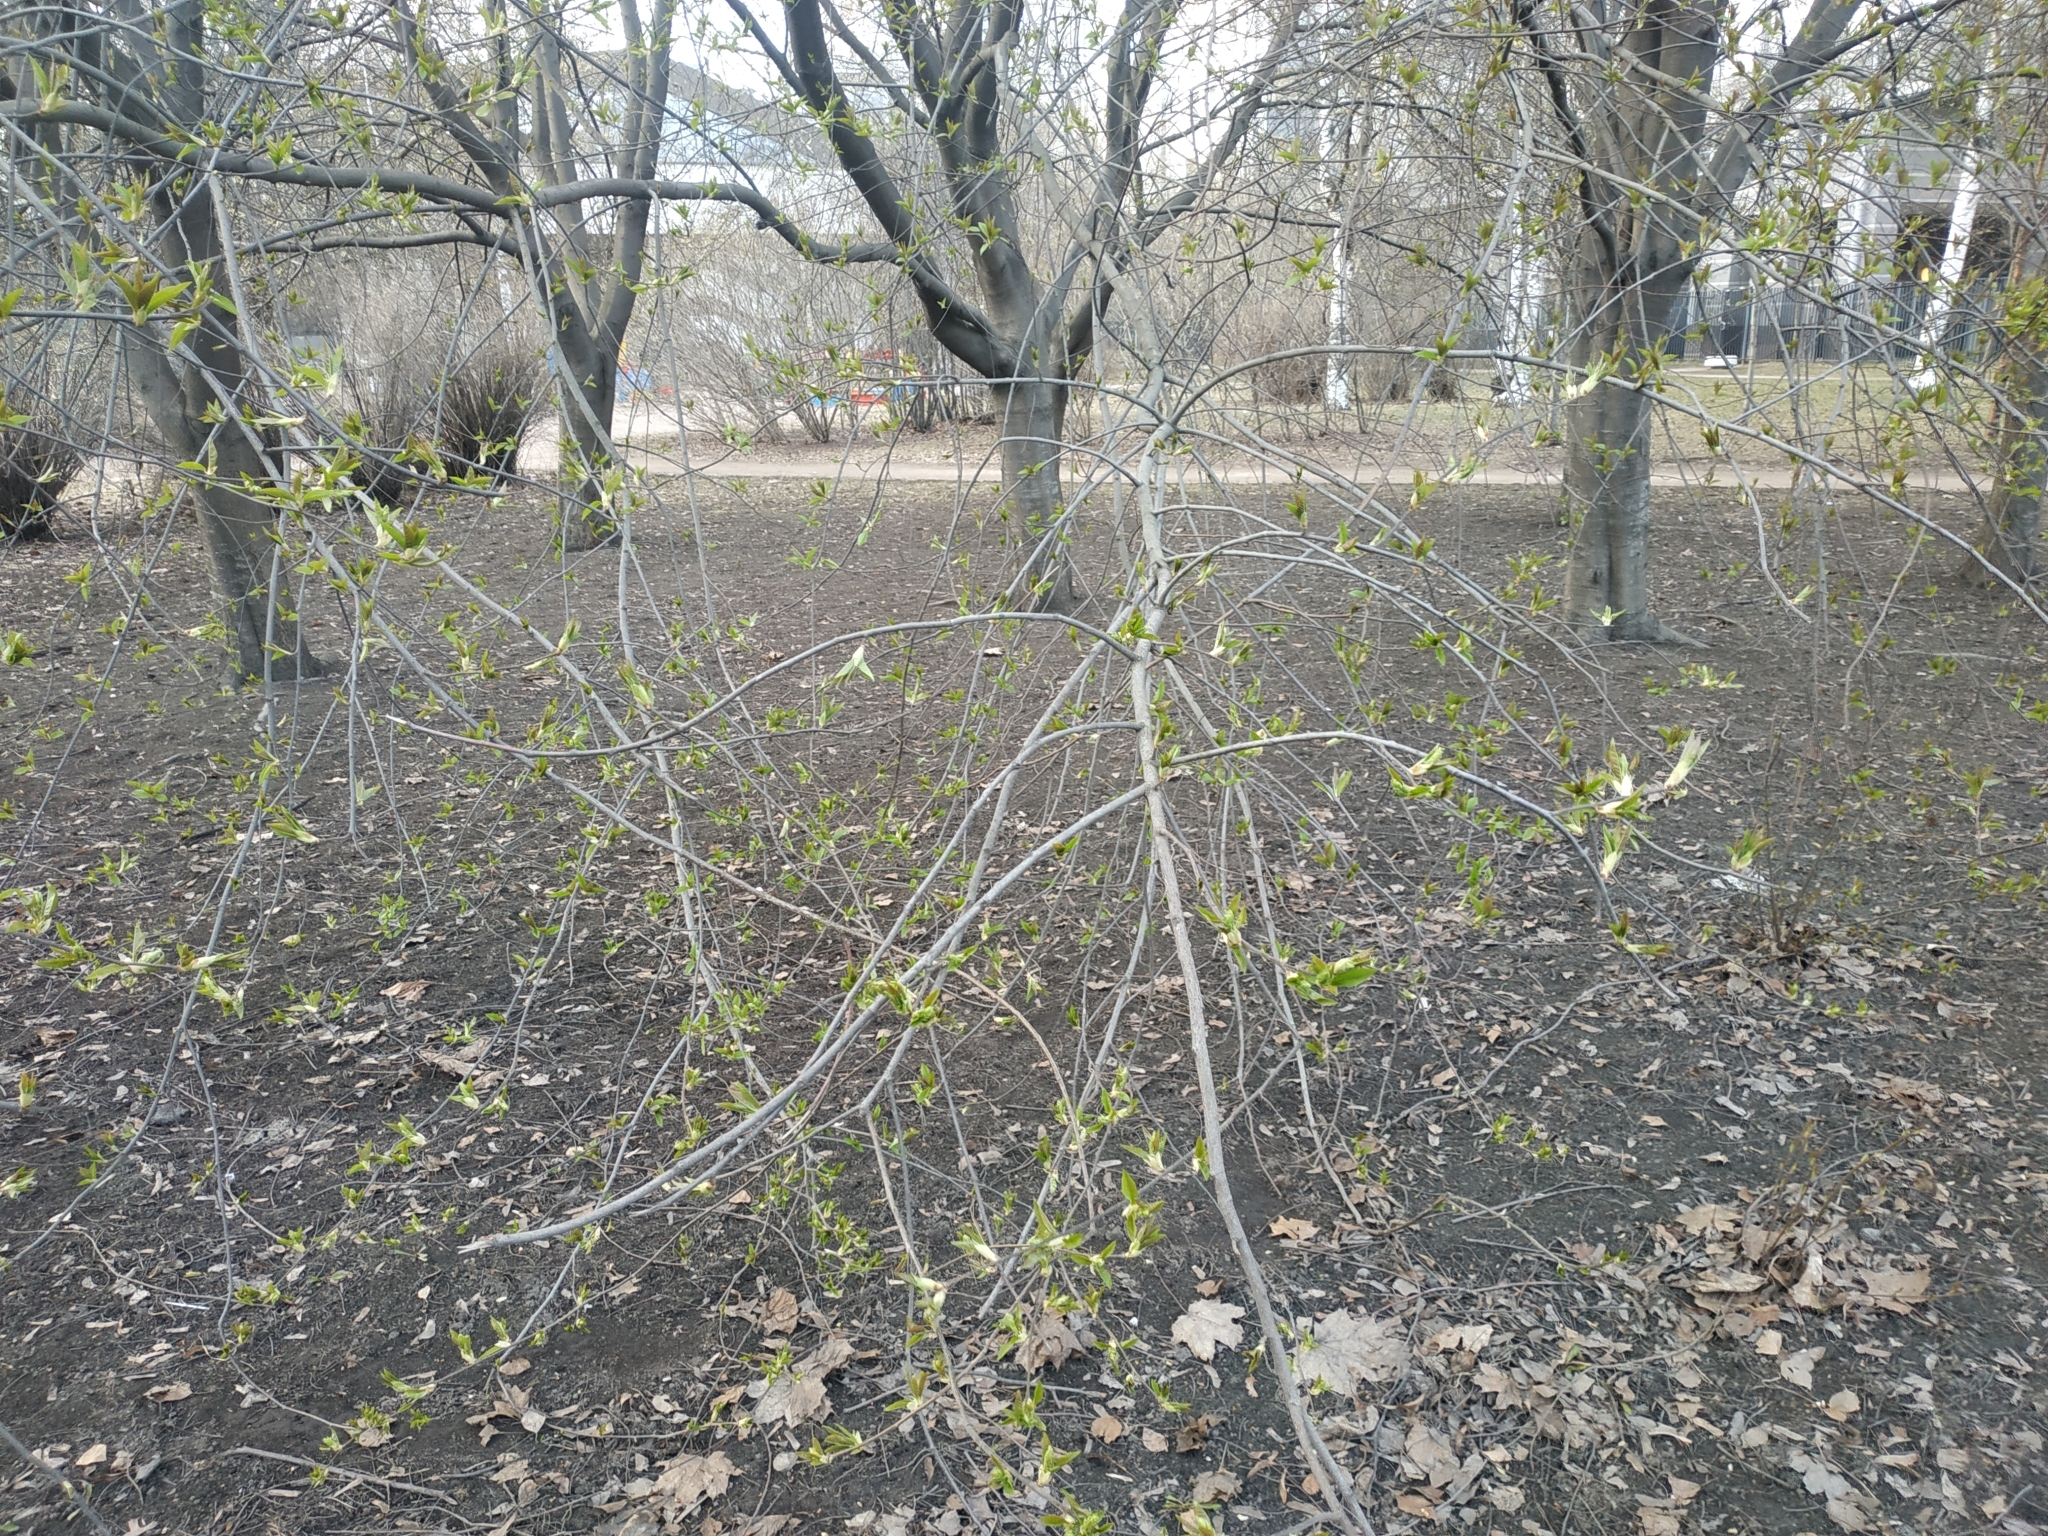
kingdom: Plantae
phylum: Tracheophyta
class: Magnoliopsida
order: Rosales
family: Rosaceae
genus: Prunus
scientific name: Prunus padus
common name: Bird cherry
